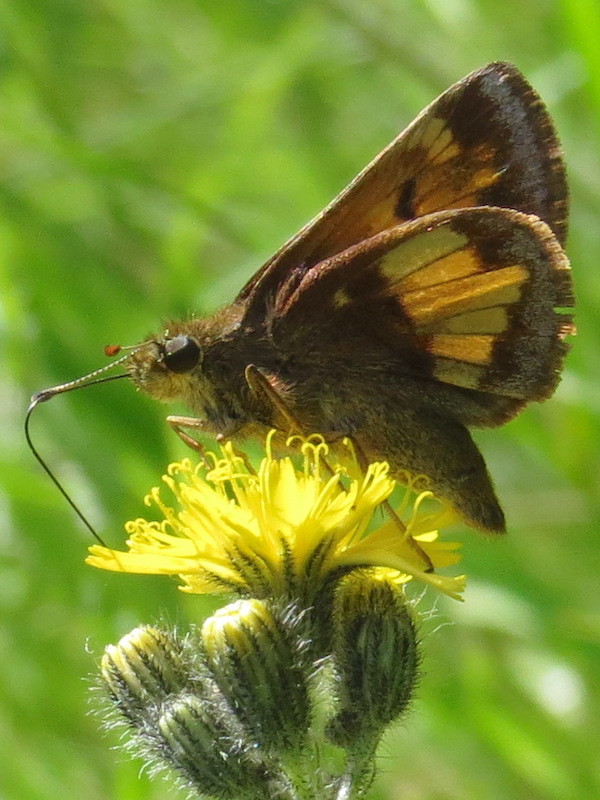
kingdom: Animalia
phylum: Arthropoda
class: Insecta
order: Lepidoptera
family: Hesperiidae
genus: Lon
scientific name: Lon hobomok
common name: Hobomok skipper
